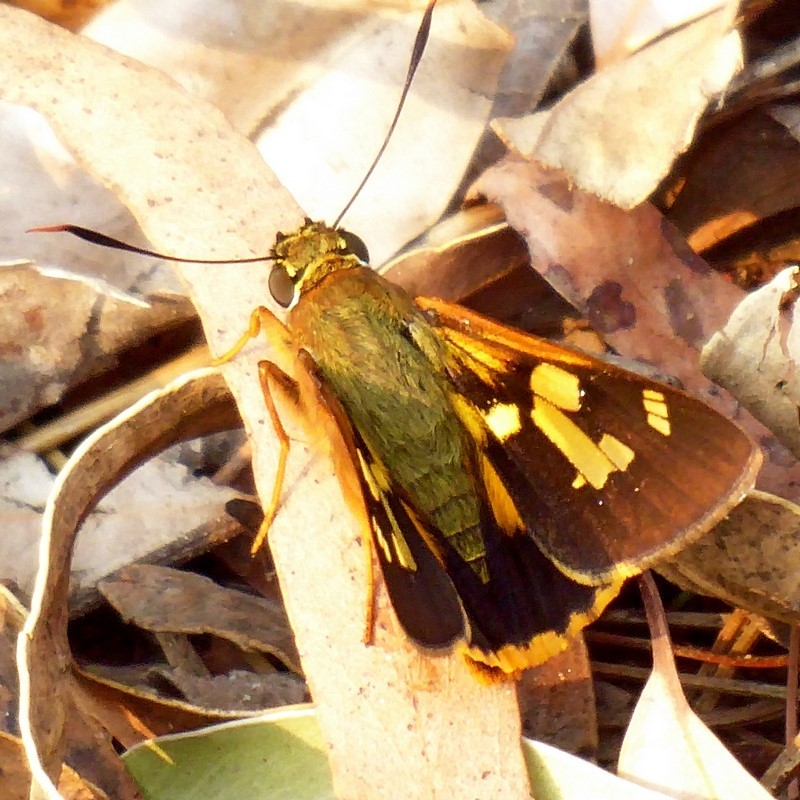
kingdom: Animalia
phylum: Arthropoda
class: Insecta
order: Lepidoptera
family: Hesperiidae
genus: Trapezites
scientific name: Trapezites symmomus
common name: Splendid ochre
